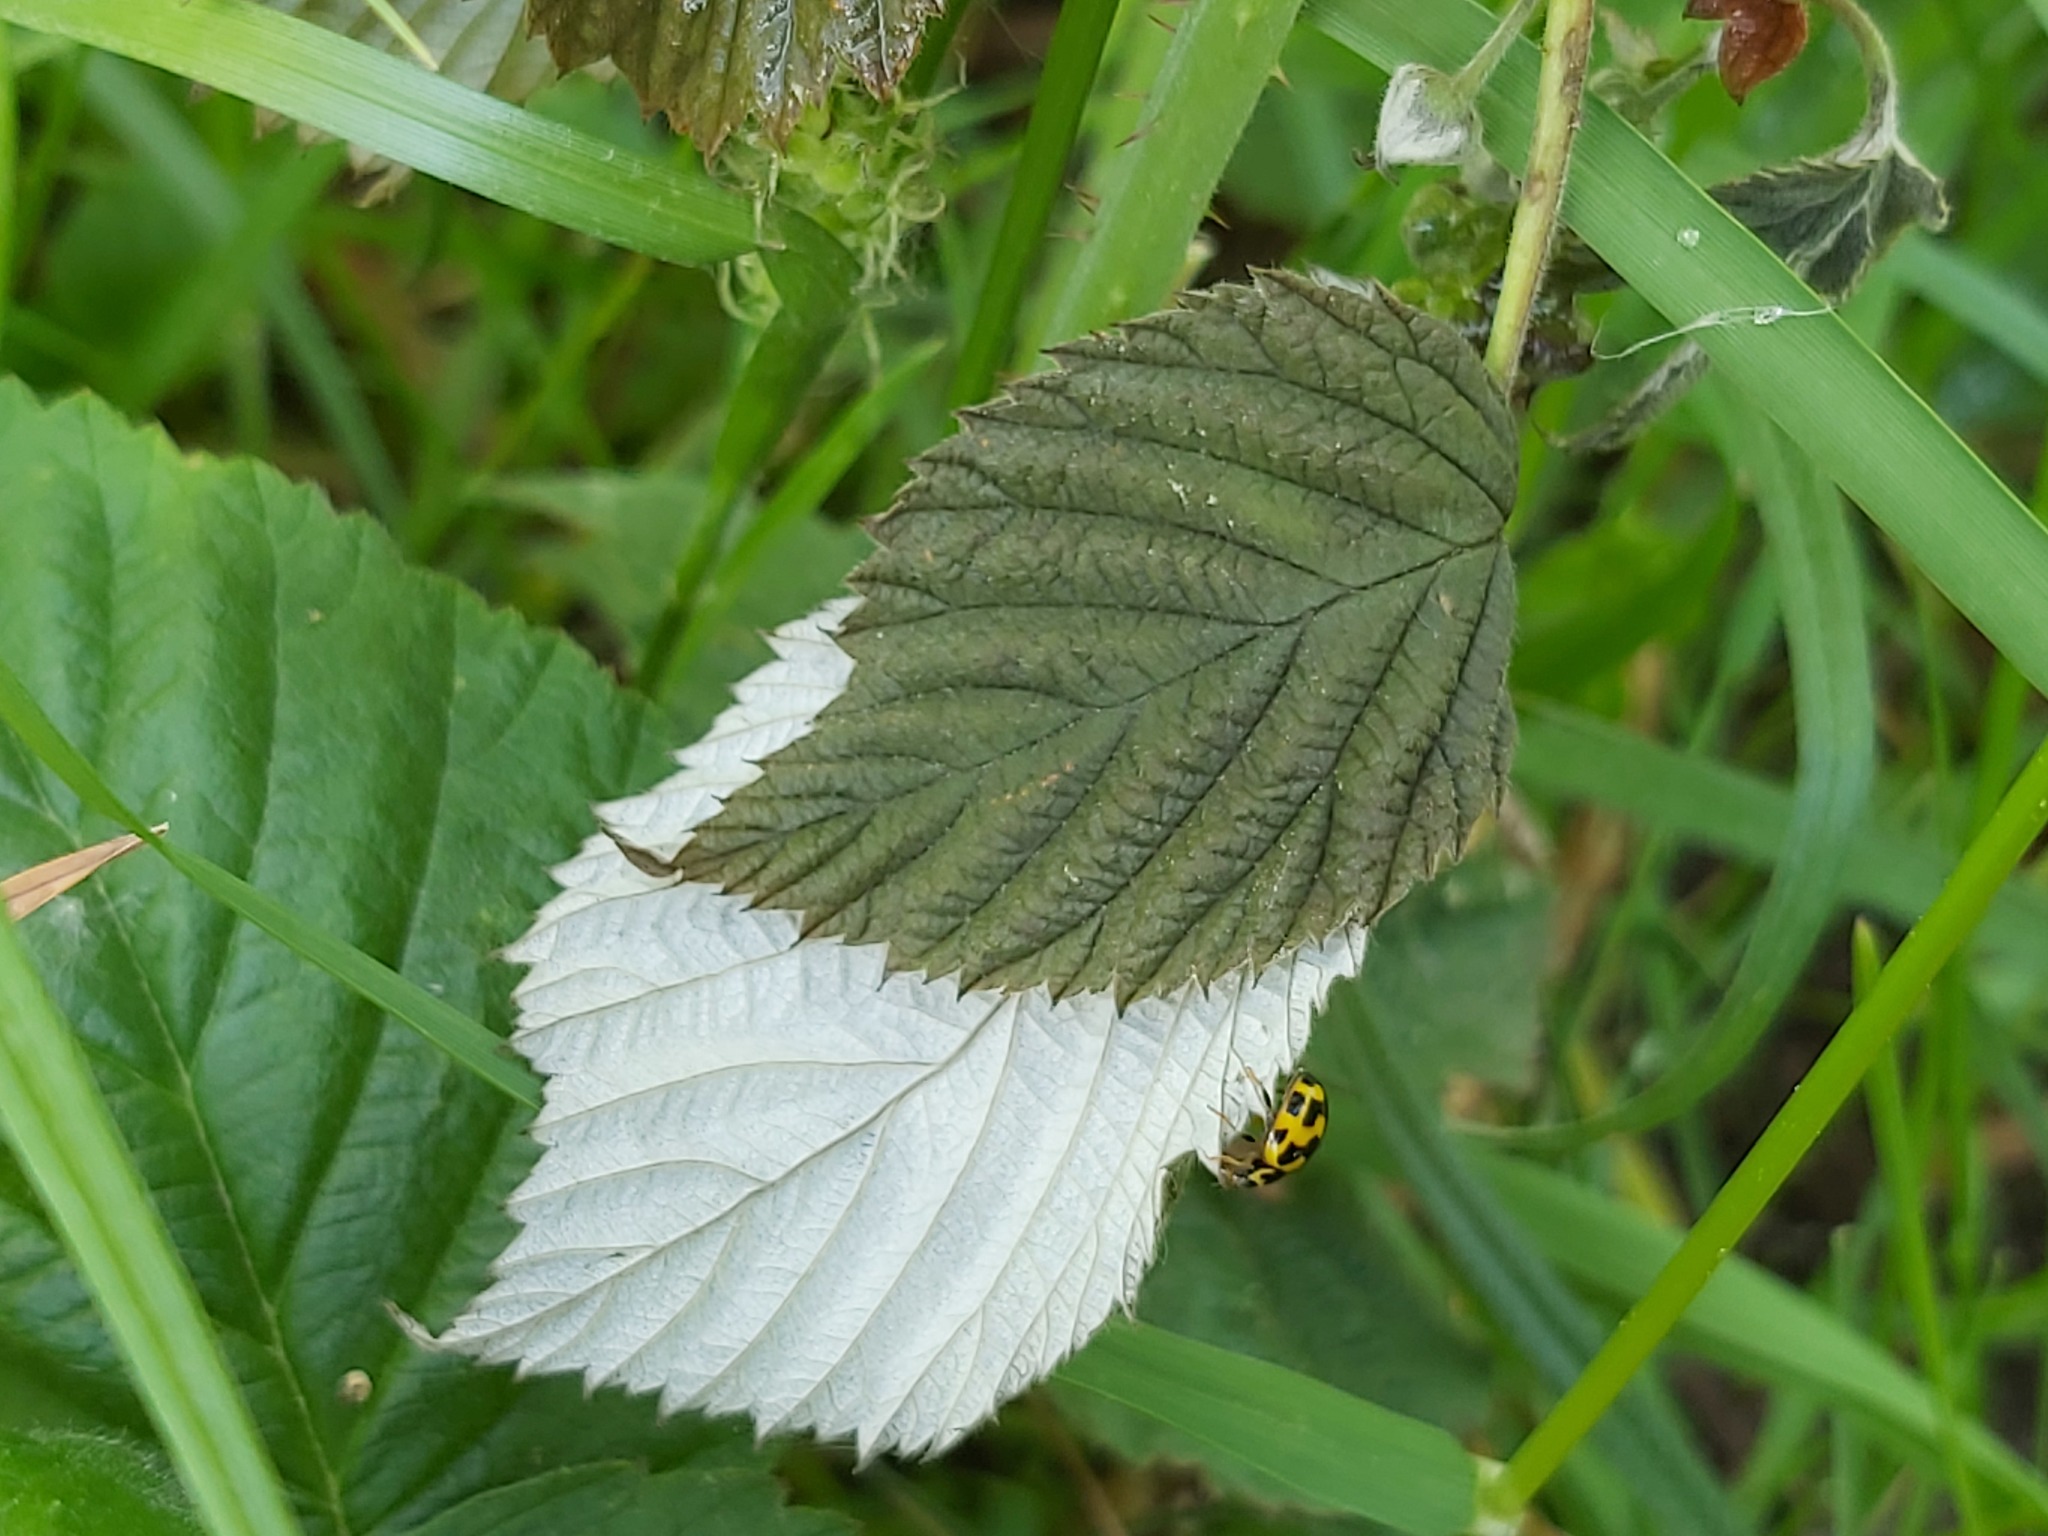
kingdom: Animalia
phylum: Arthropoda
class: Insecta
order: Coleoptera
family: Coccinellidae
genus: Propylaea
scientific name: Propylaea quatuordecimpunctata
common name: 14-spotted ladybird beetle
